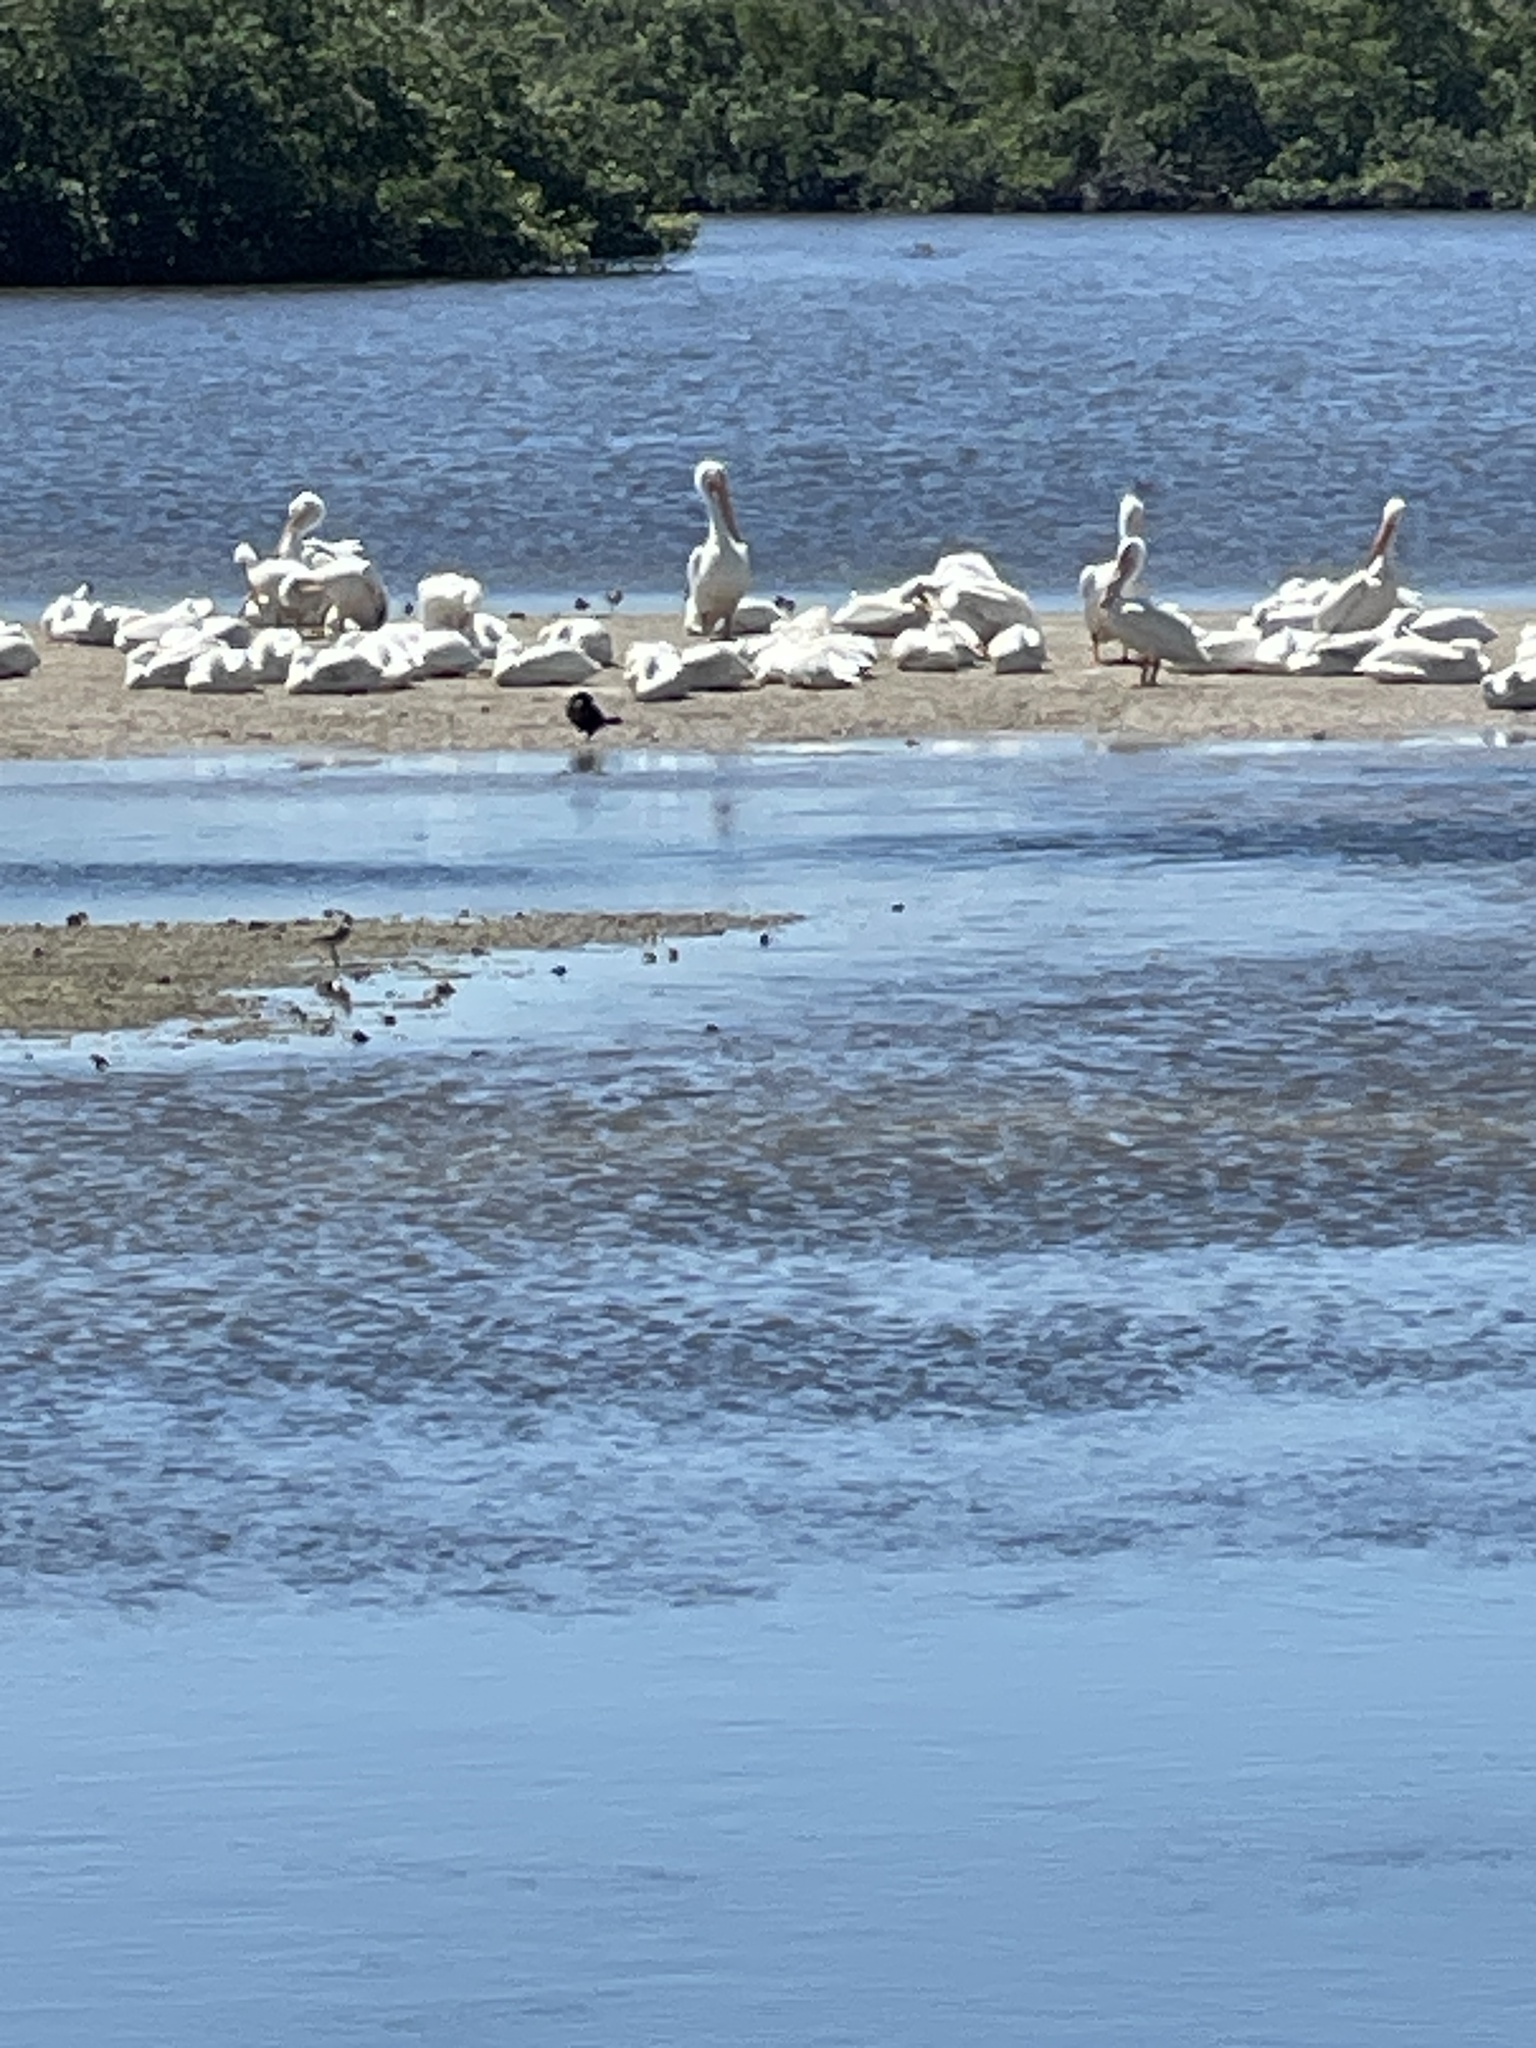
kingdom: Animalia
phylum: Chordata
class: Aves
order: Pelecaniformes
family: Pelecanidae
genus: Pelecanus
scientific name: Pelecanus erythrorhynchos
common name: American white pelican
